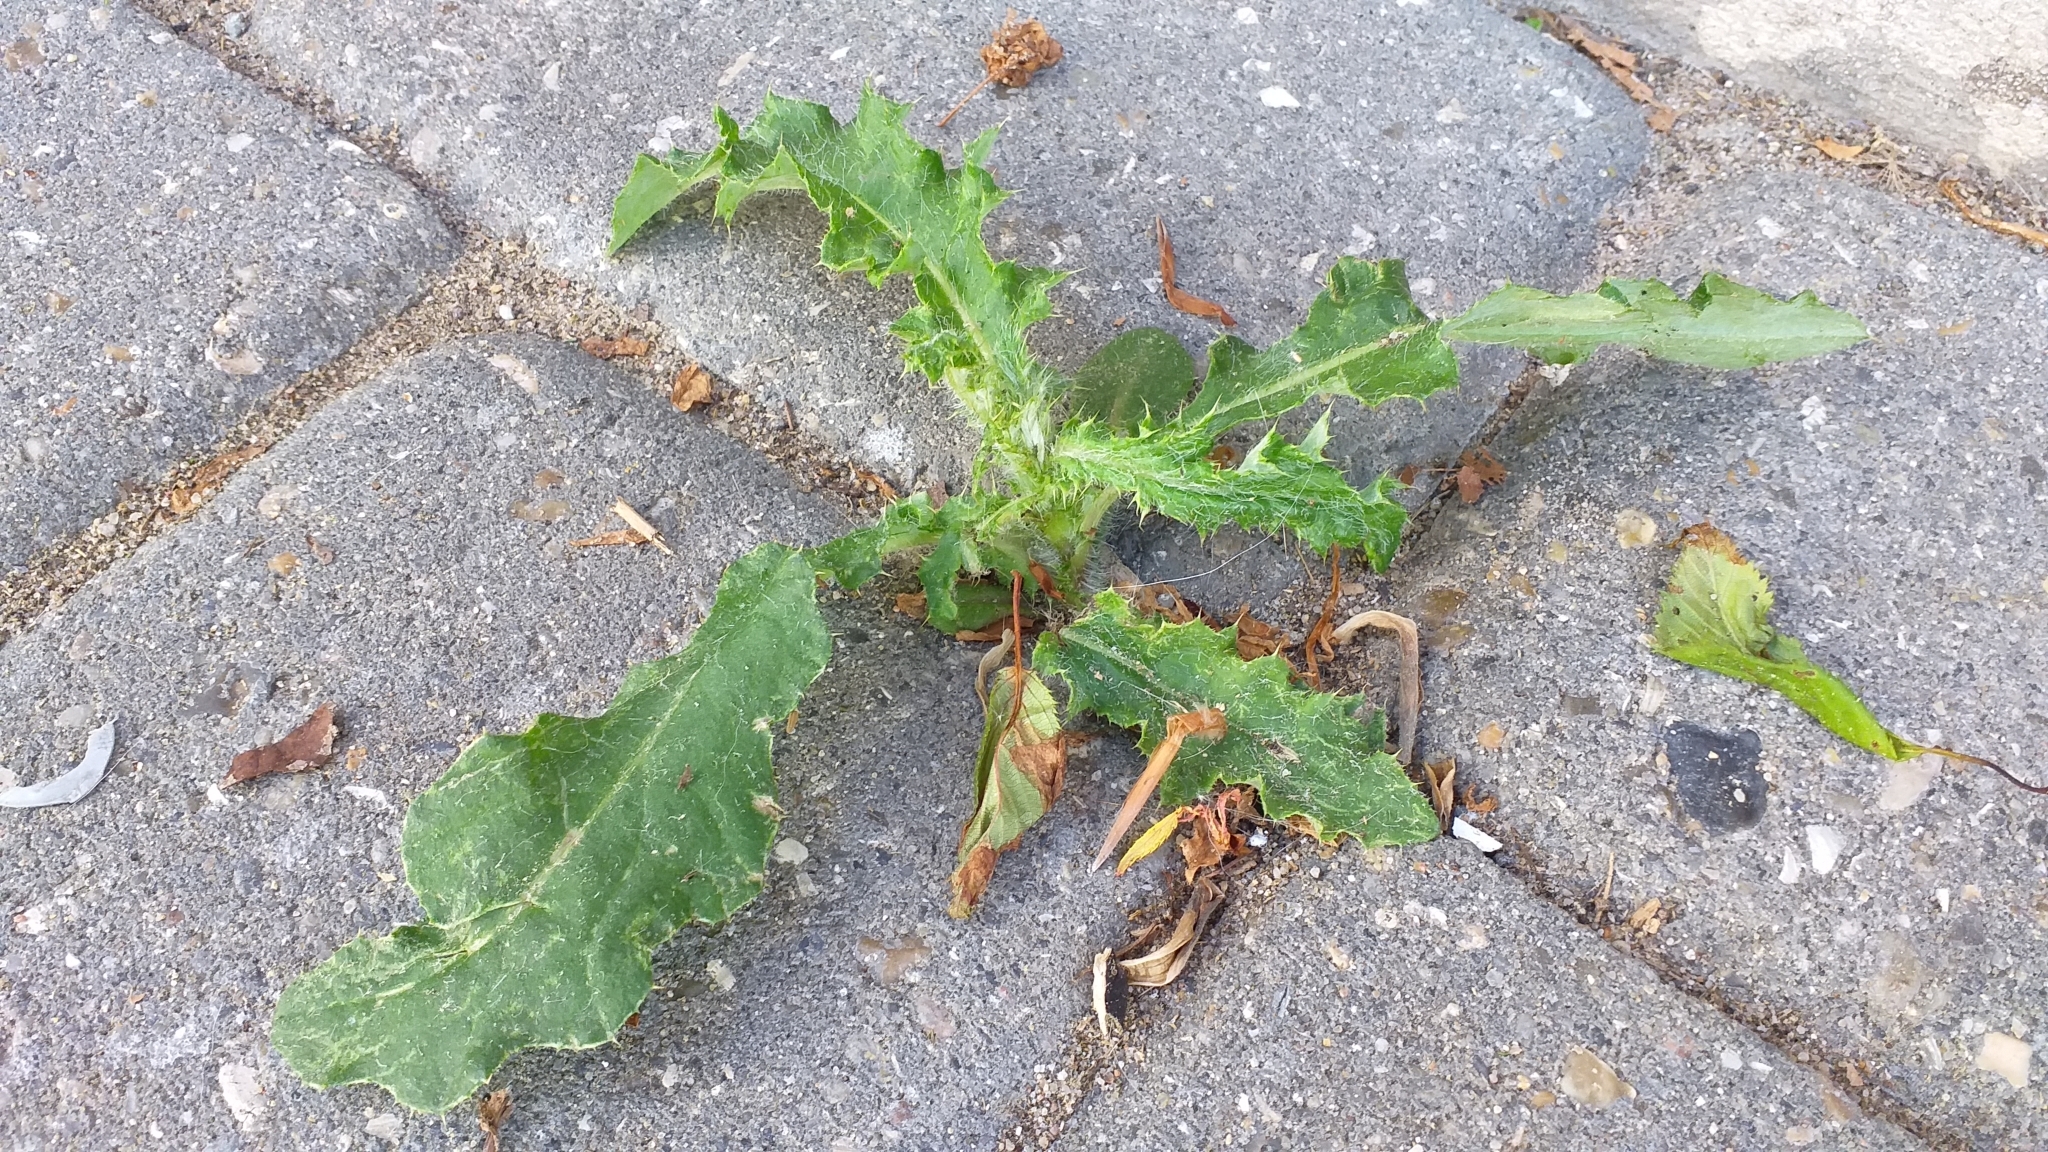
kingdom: Plantae
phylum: Tracheophyta
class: Magnoliopsida
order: Asterales
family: Asteraceae
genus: Cirsium
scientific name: Cirsium arvense
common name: Creeping thistle
